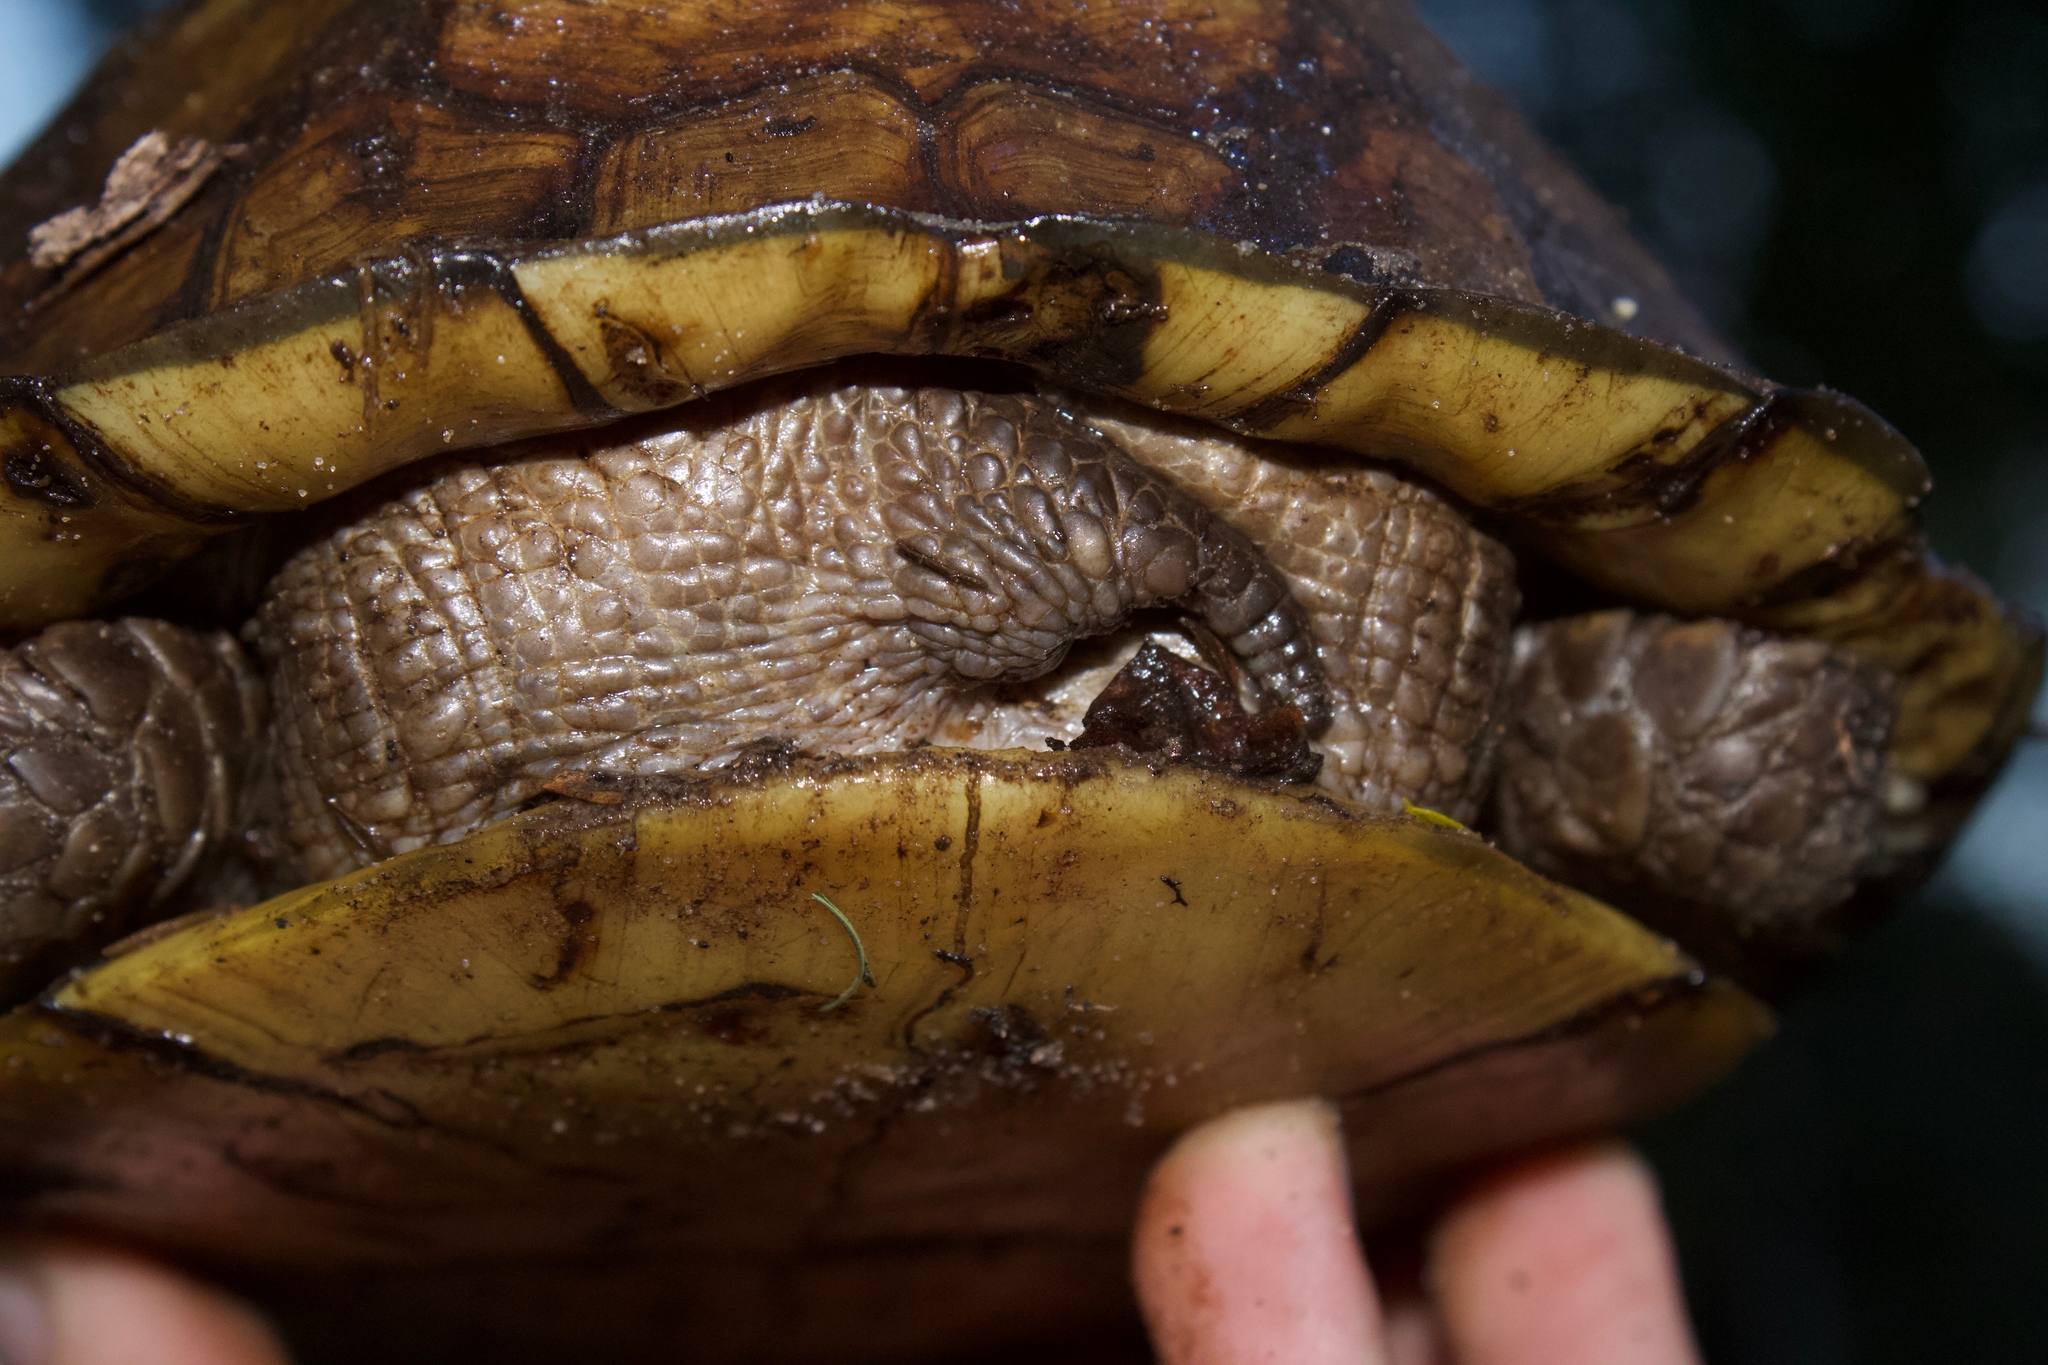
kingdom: Animalia
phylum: Chordata
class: Testudines
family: Emydidae
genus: Terrapene
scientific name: Terrapene carolina
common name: Common box turtle
